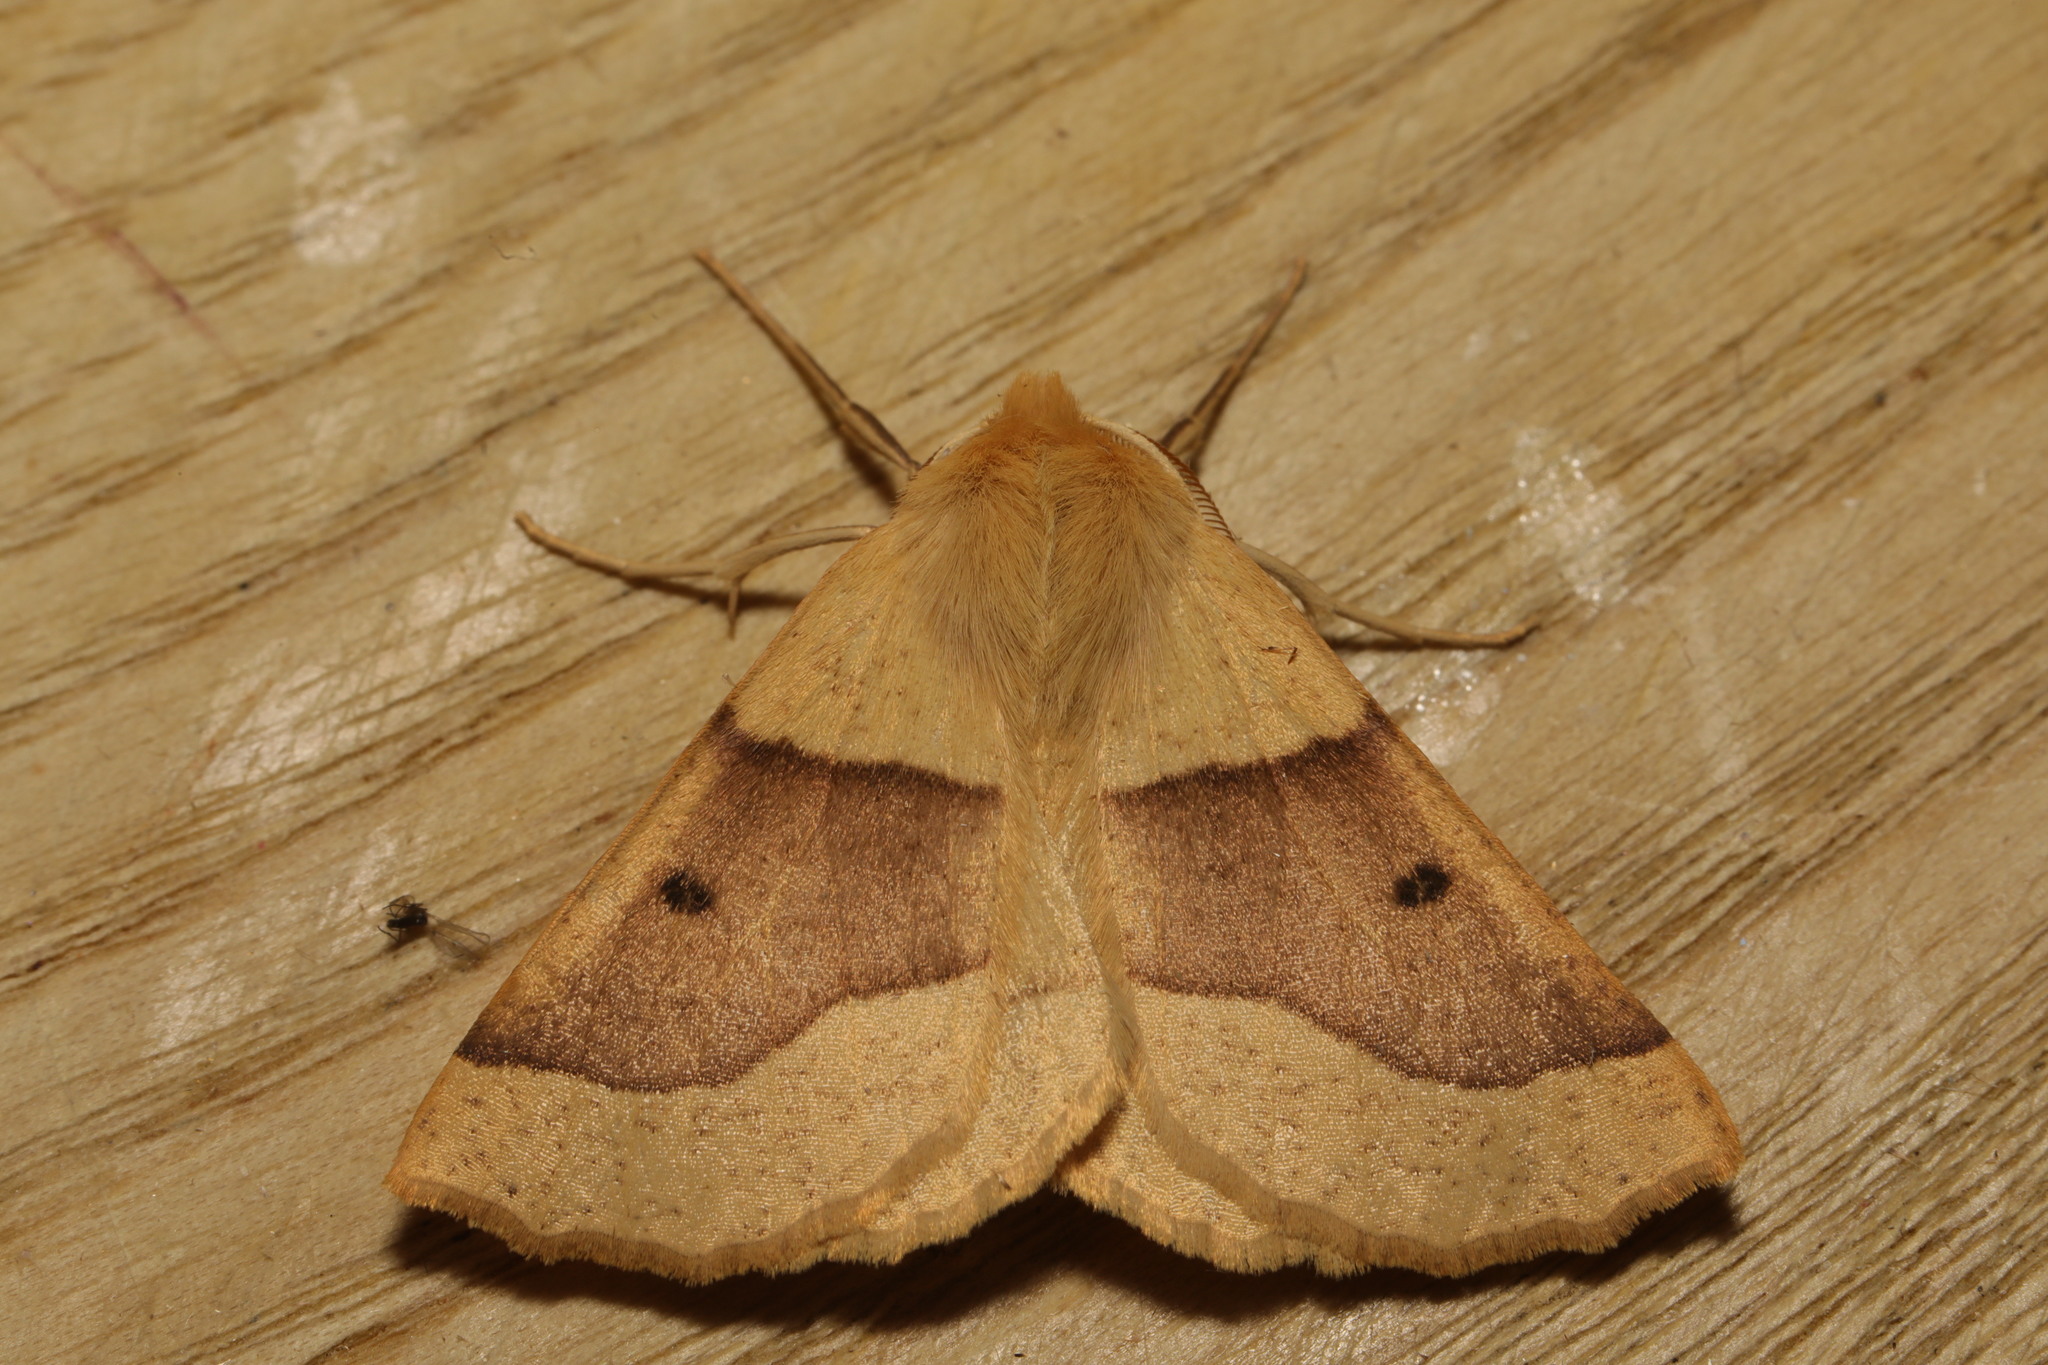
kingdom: Animalia
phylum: Arthropoda
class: Insecta
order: Lepidoptera
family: Geometridae
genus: Crocallis
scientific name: Crocallis elinguaria
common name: Scalloped oak
